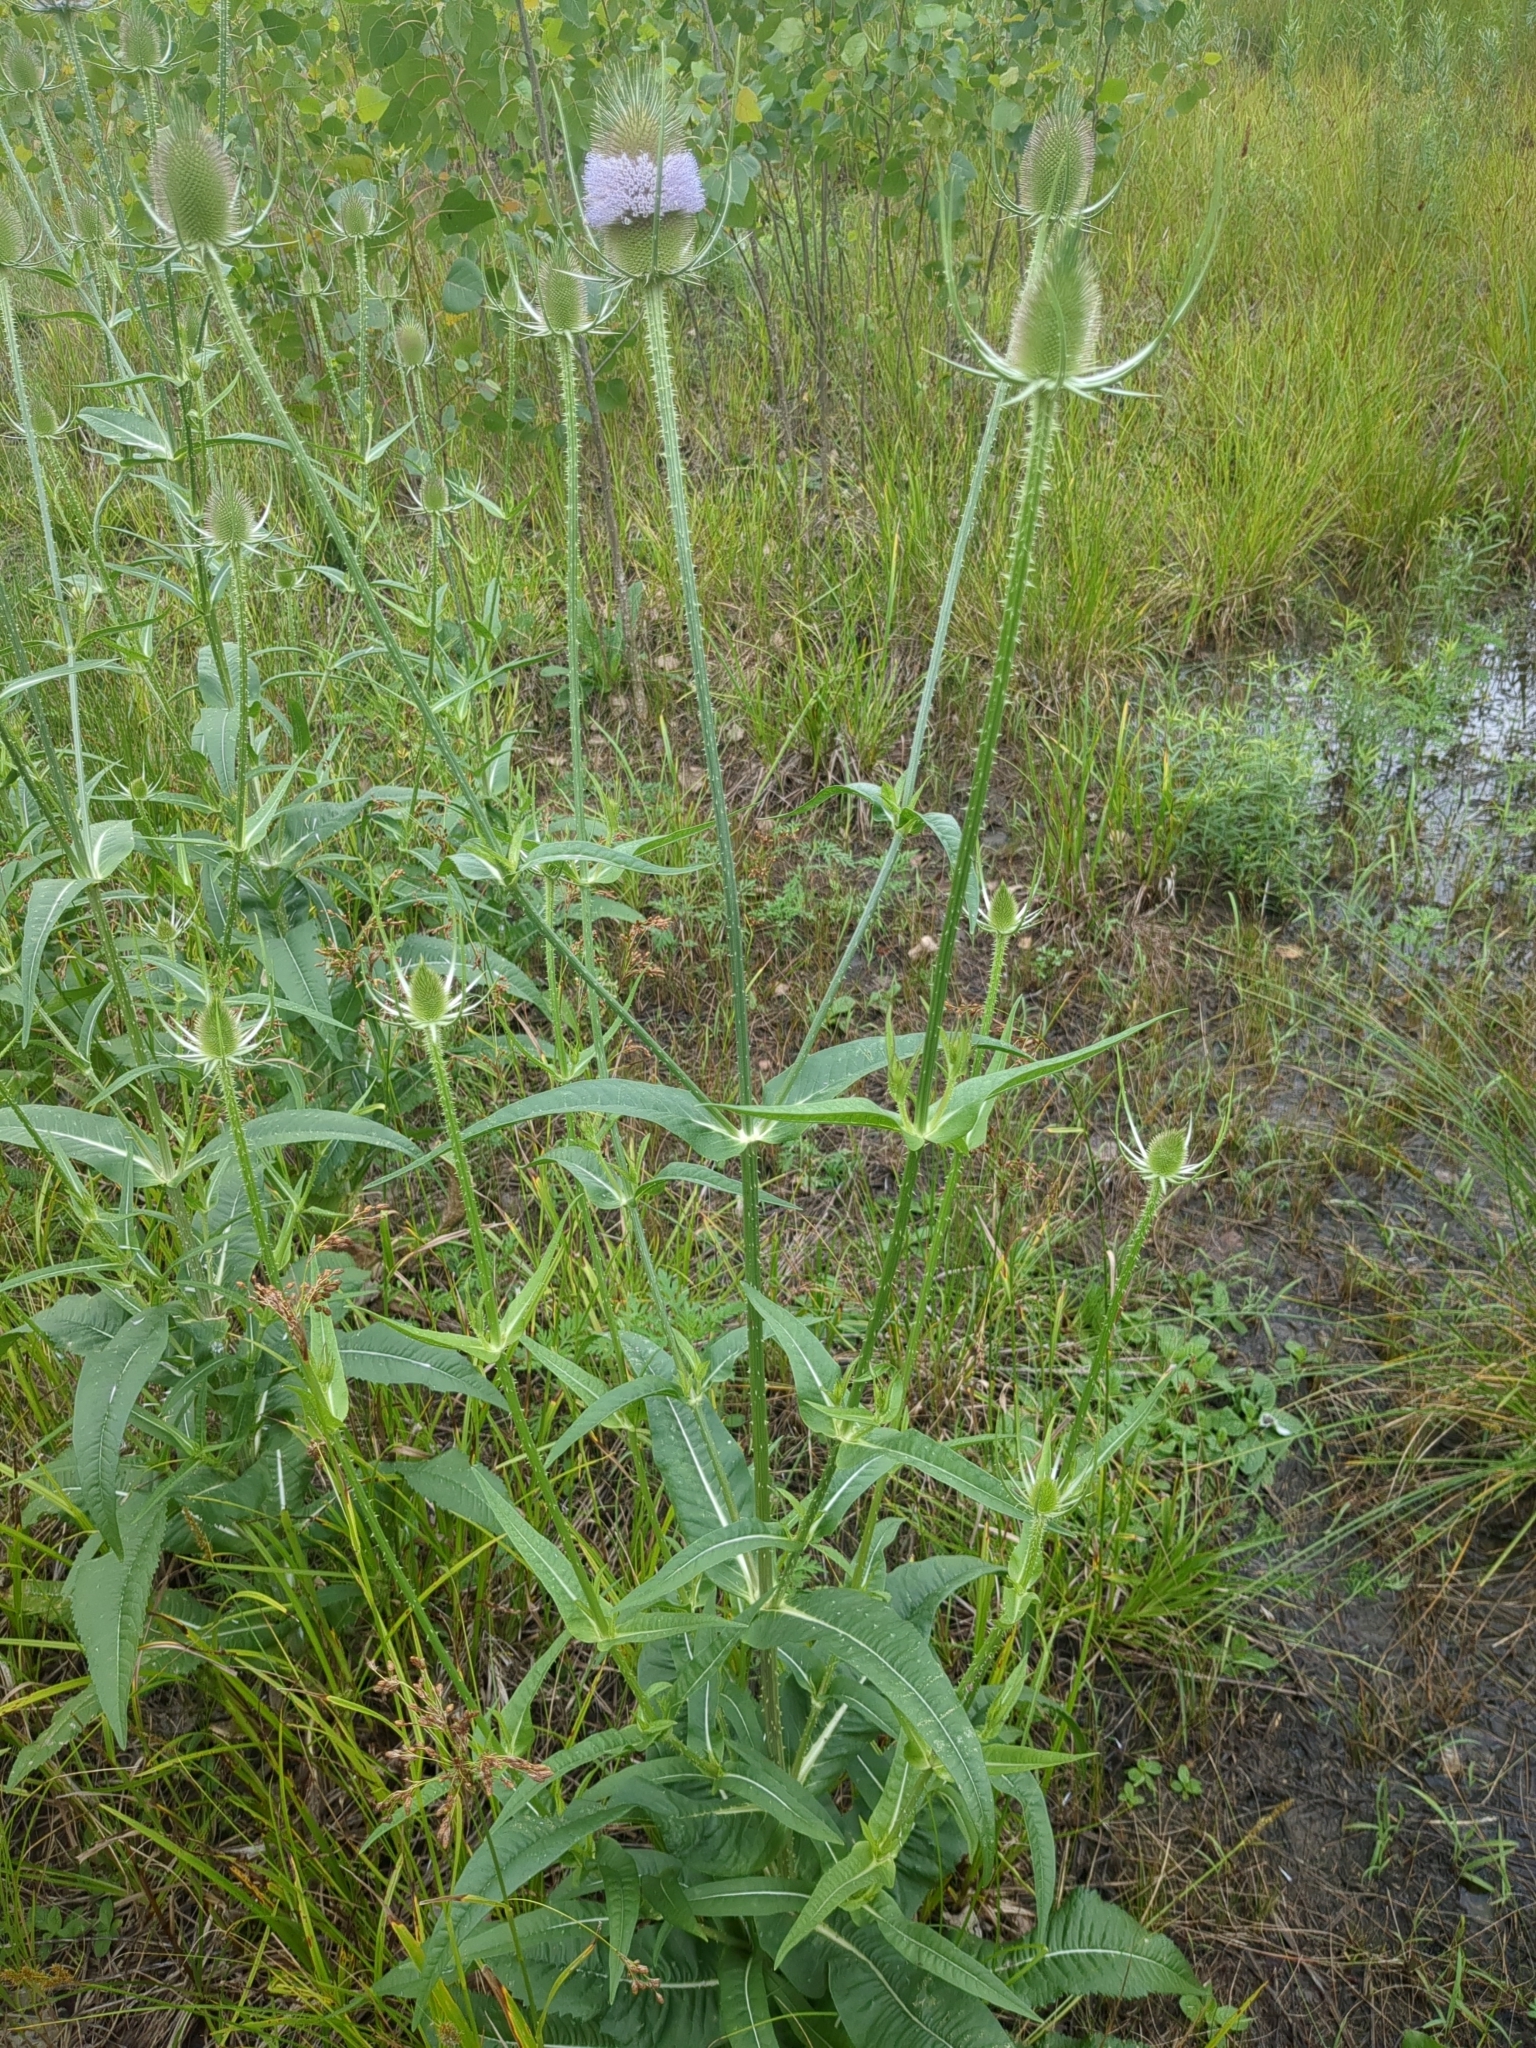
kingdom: Plantae
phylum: Tracheophyta
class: Magnoliopsida
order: Dipsacales
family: Caprifoliaceae
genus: Dipsacus
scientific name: Dipsacus fullonum
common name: Teasel
